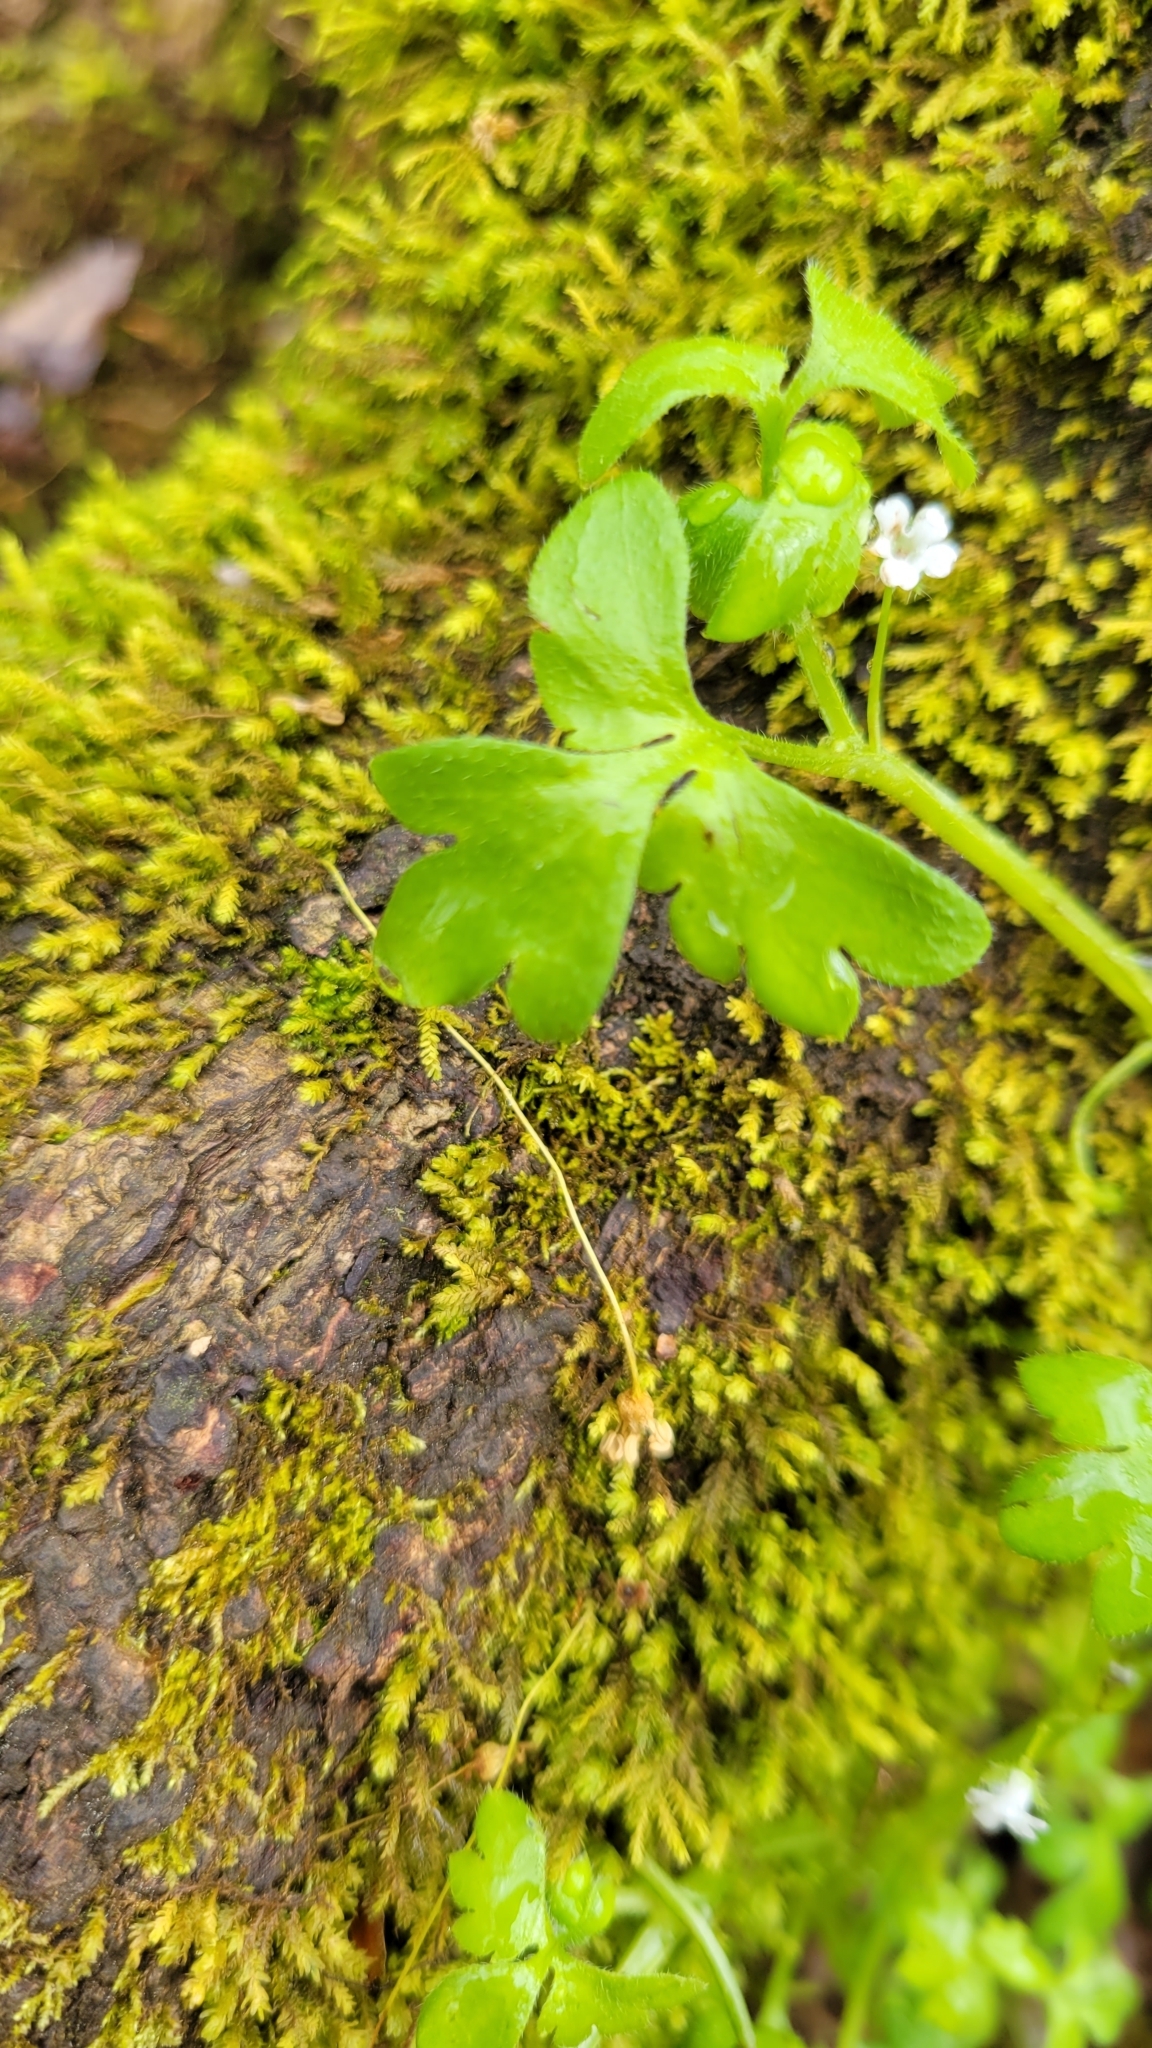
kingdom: Plantae
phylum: Tracheophyta
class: Magnoliopsida
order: Boraginales
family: Hydrophyllaceae
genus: Nemophila
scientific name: Nemophila aphylla
